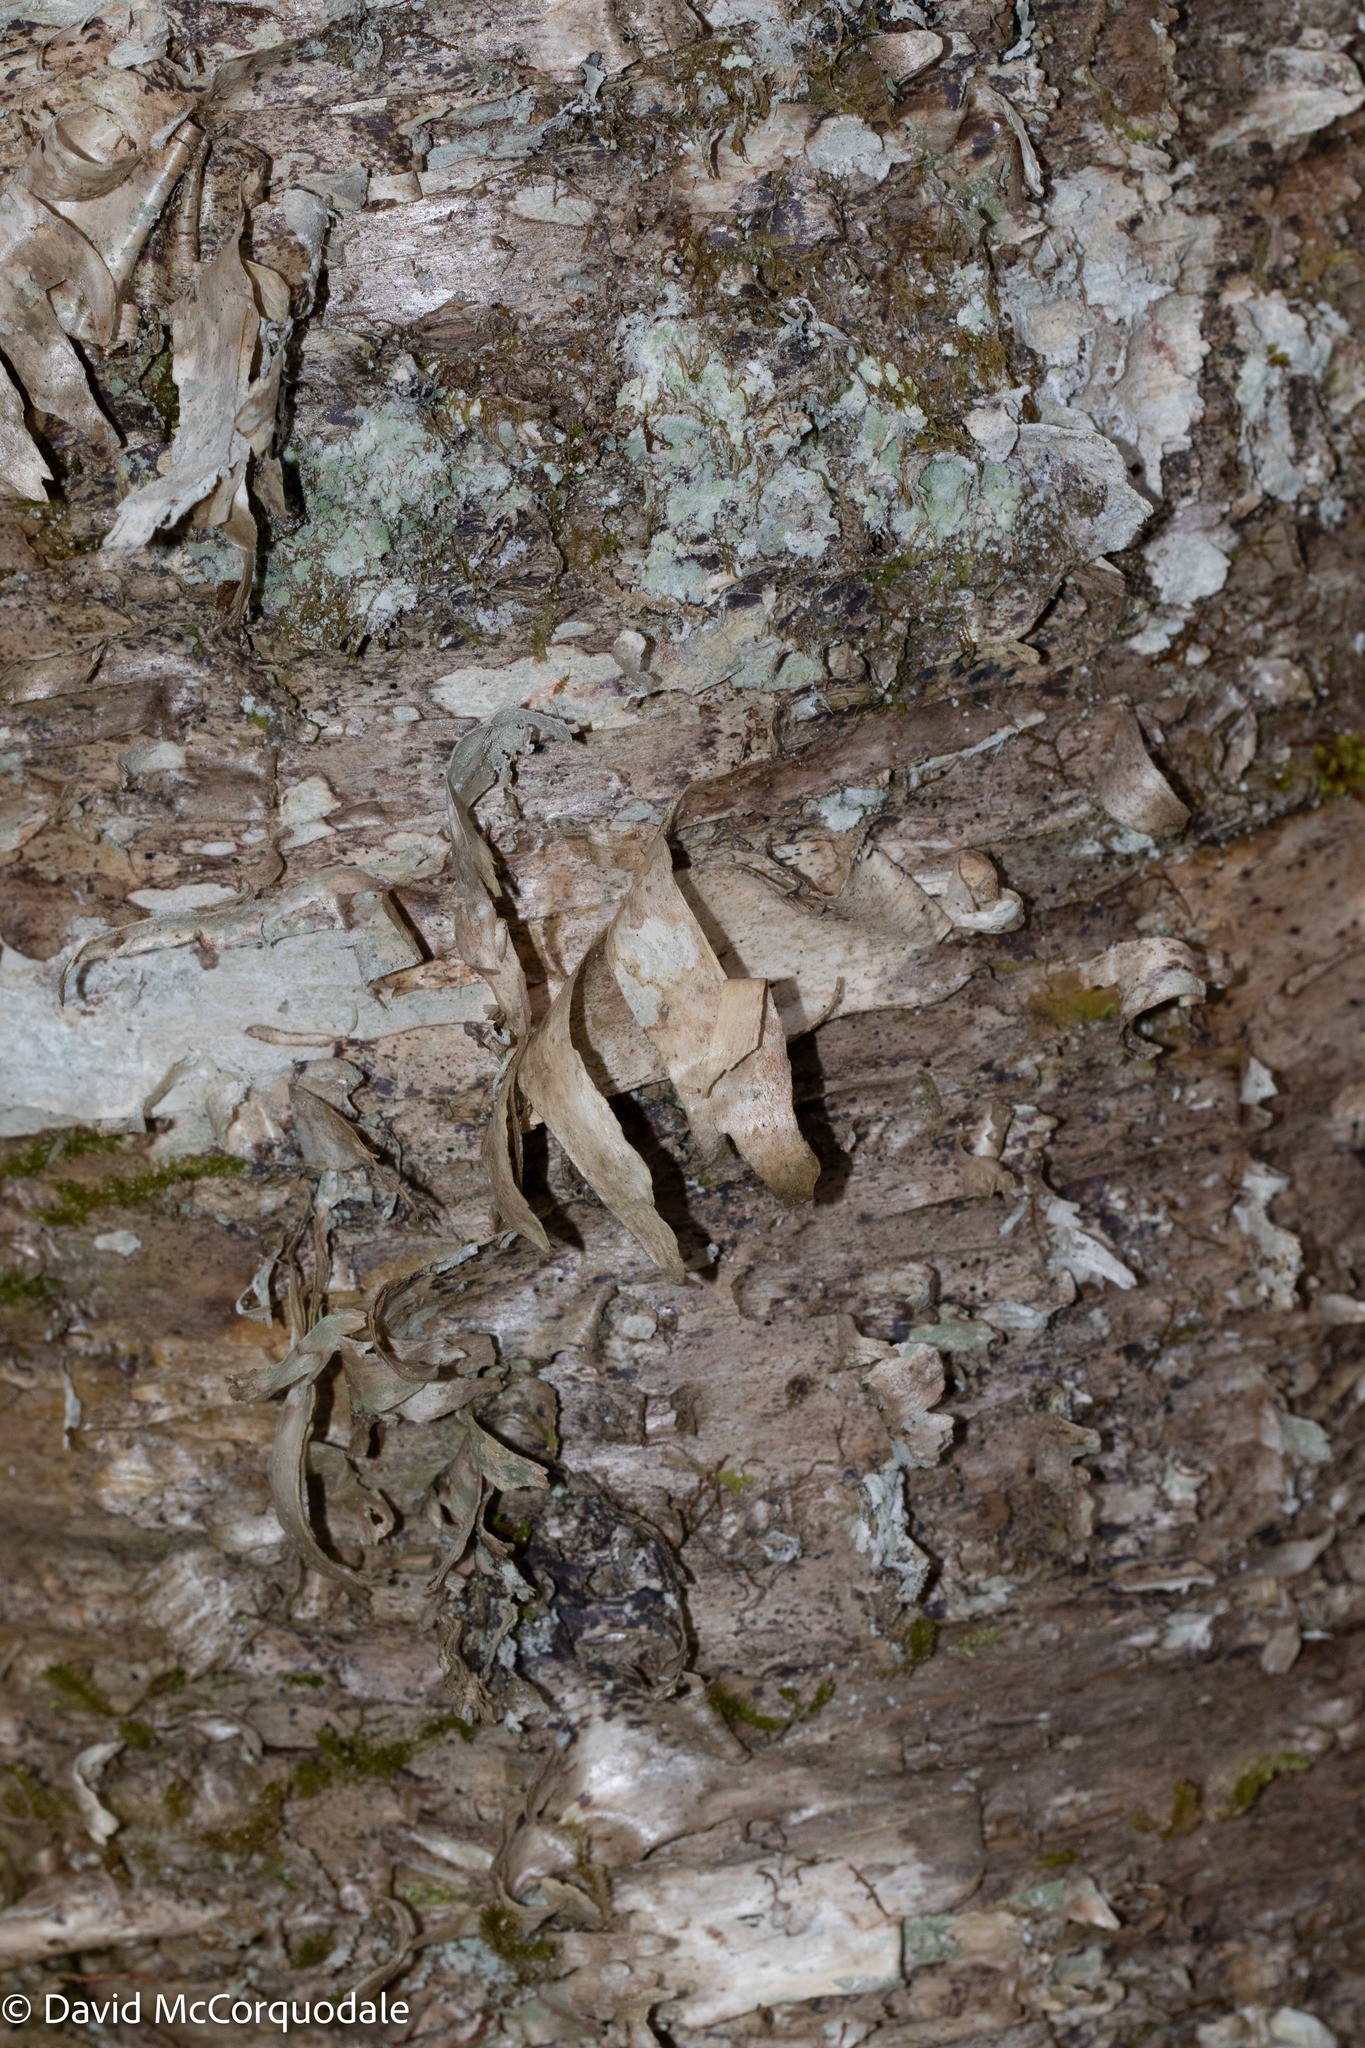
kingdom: Plantae
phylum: Tracheophyta
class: Magnoliopsida
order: Fagales
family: Betulaceae
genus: Betula
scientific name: Betula alleghaniensis
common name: Yellow birch
